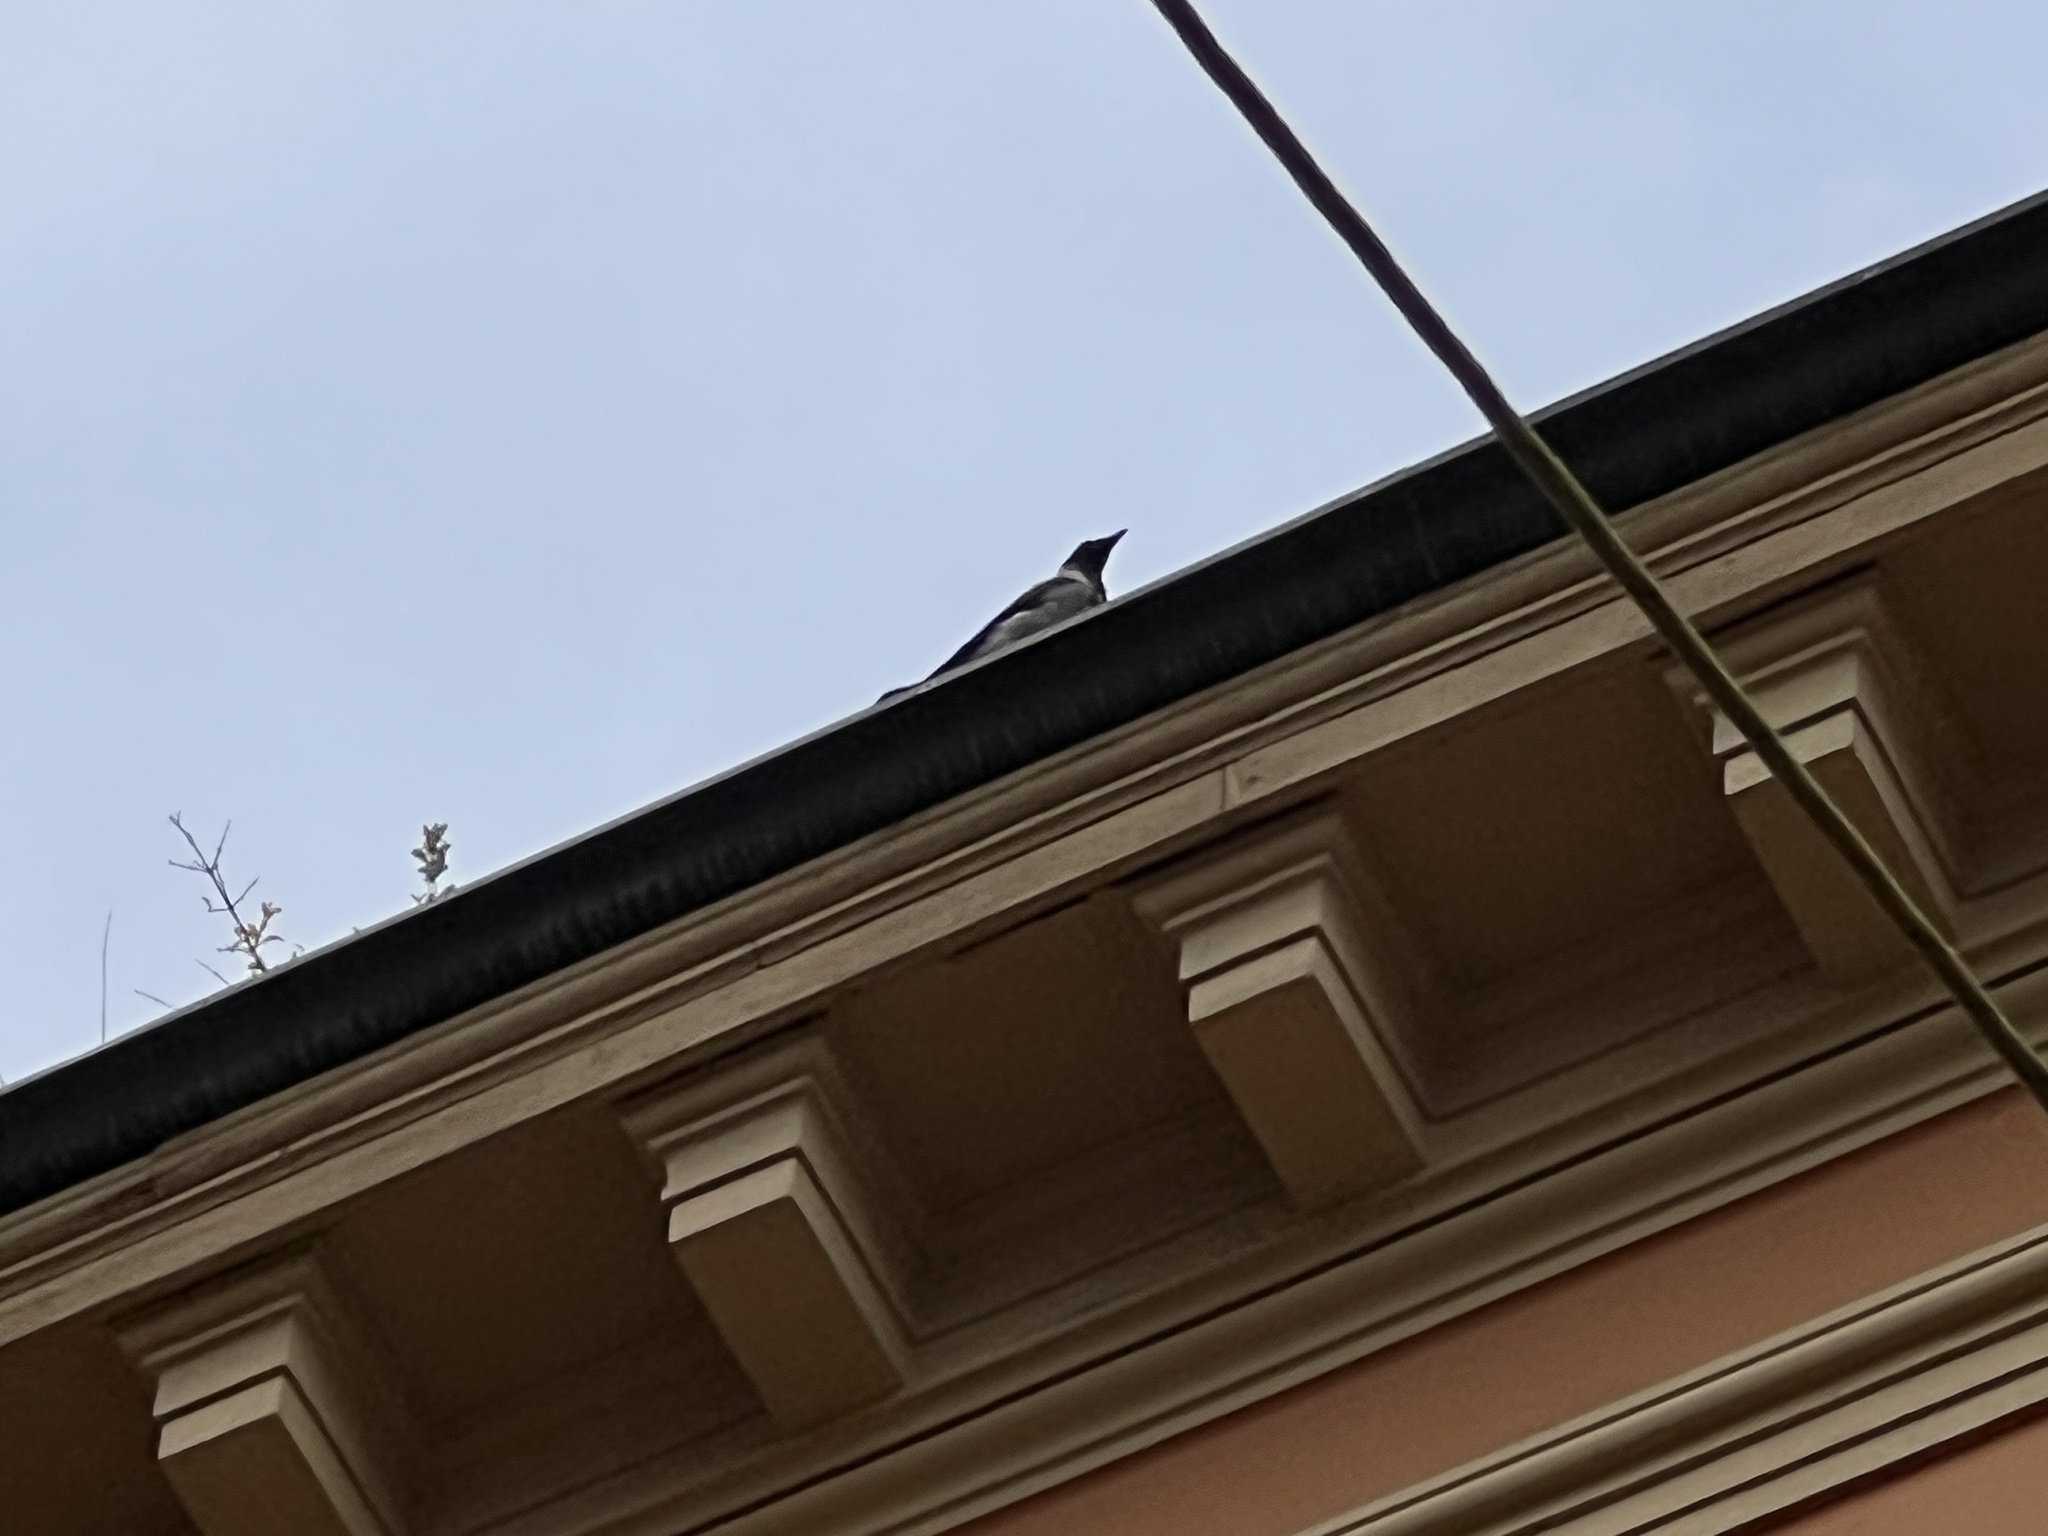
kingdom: Animalia
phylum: Chordata
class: Aves
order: Passeriformes
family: Corvidae
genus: Corvus
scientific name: Corvus cornix
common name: Hooded crow
